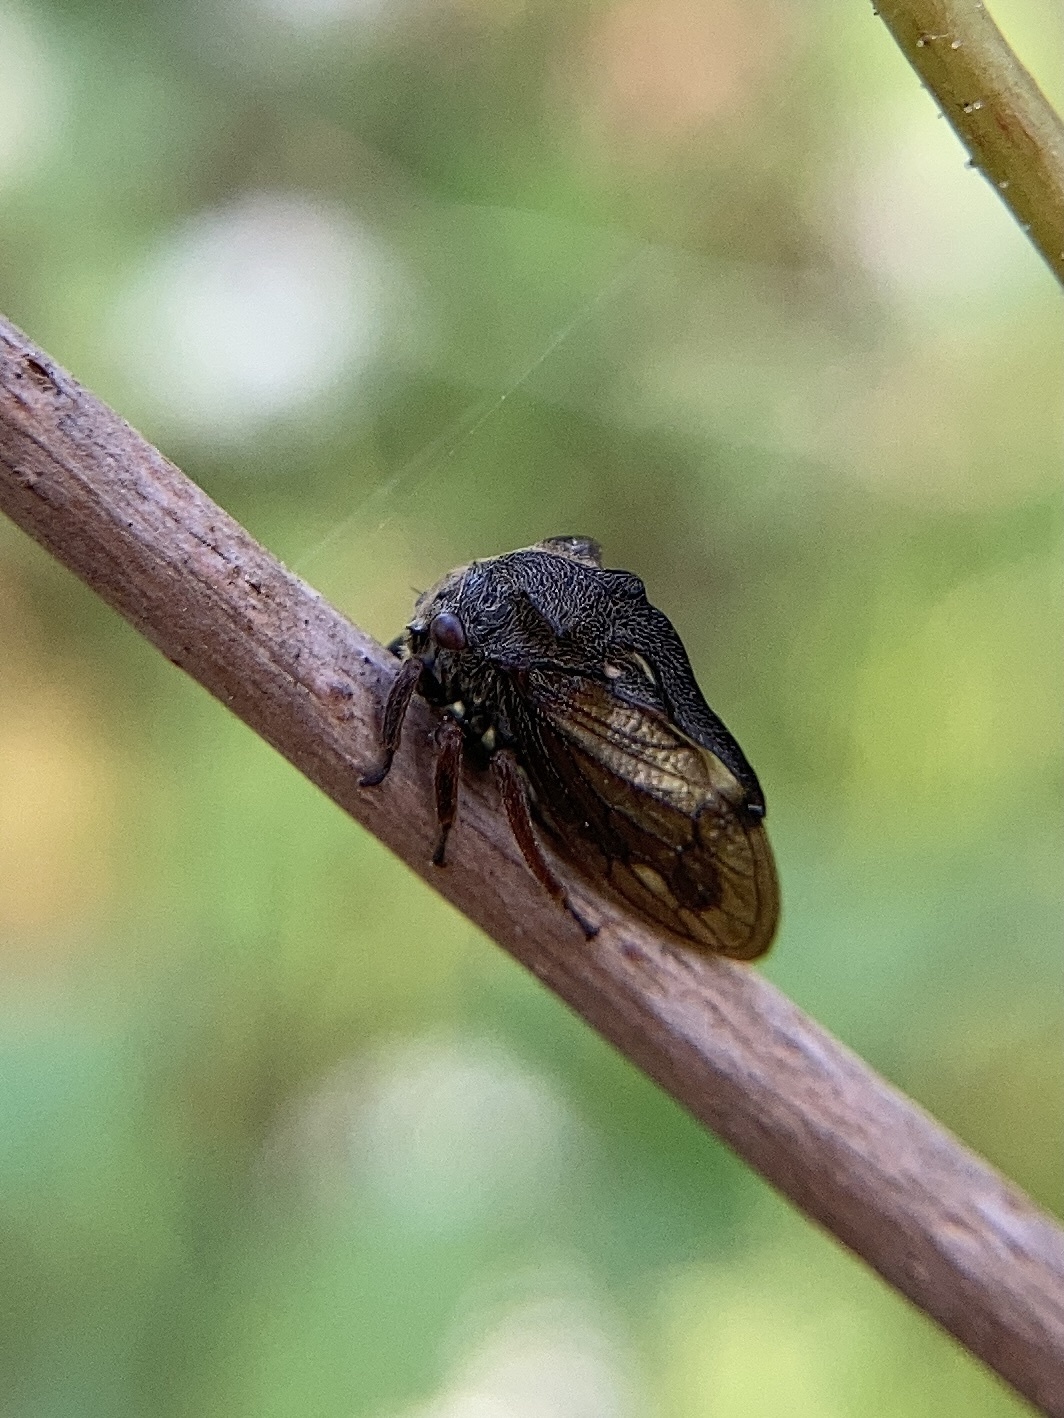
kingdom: Animalia
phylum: Arthropoda
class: Insecta
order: Hemiptera
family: Membracidae
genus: Centrotus
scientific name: Centrotus cornuta
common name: Treehopper
